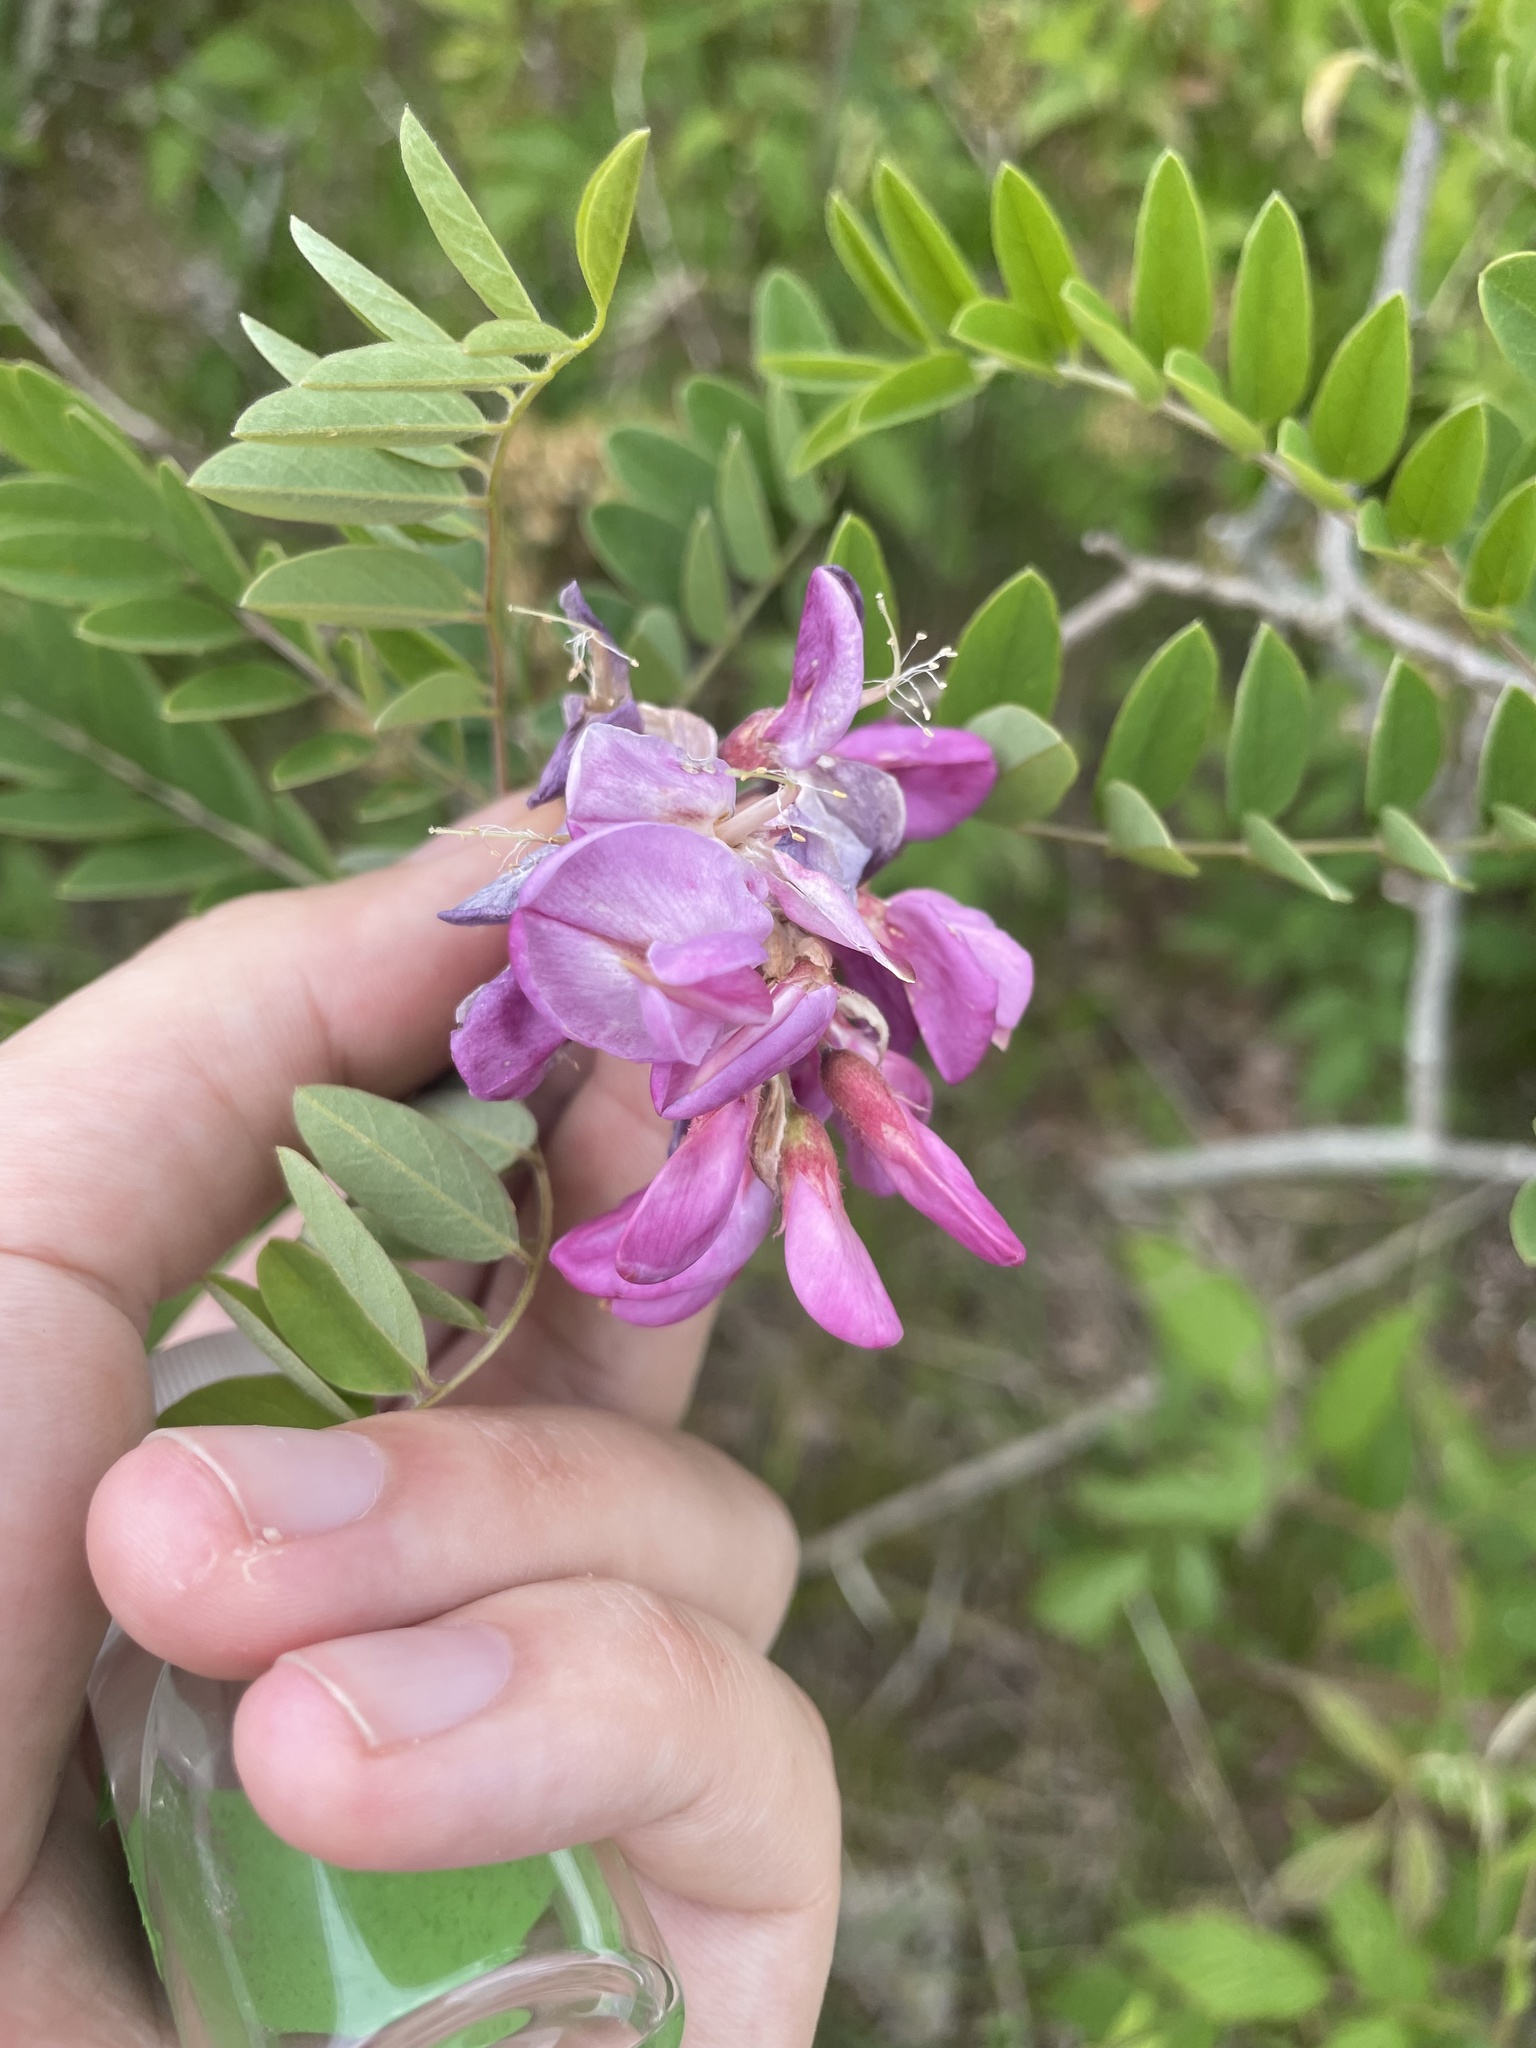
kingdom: Plantae
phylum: Tracheophyta
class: Magnoliopsida
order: Fabales
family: Fabaceae
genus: Robinia
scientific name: Robinia viscosa
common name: Clammy locust
